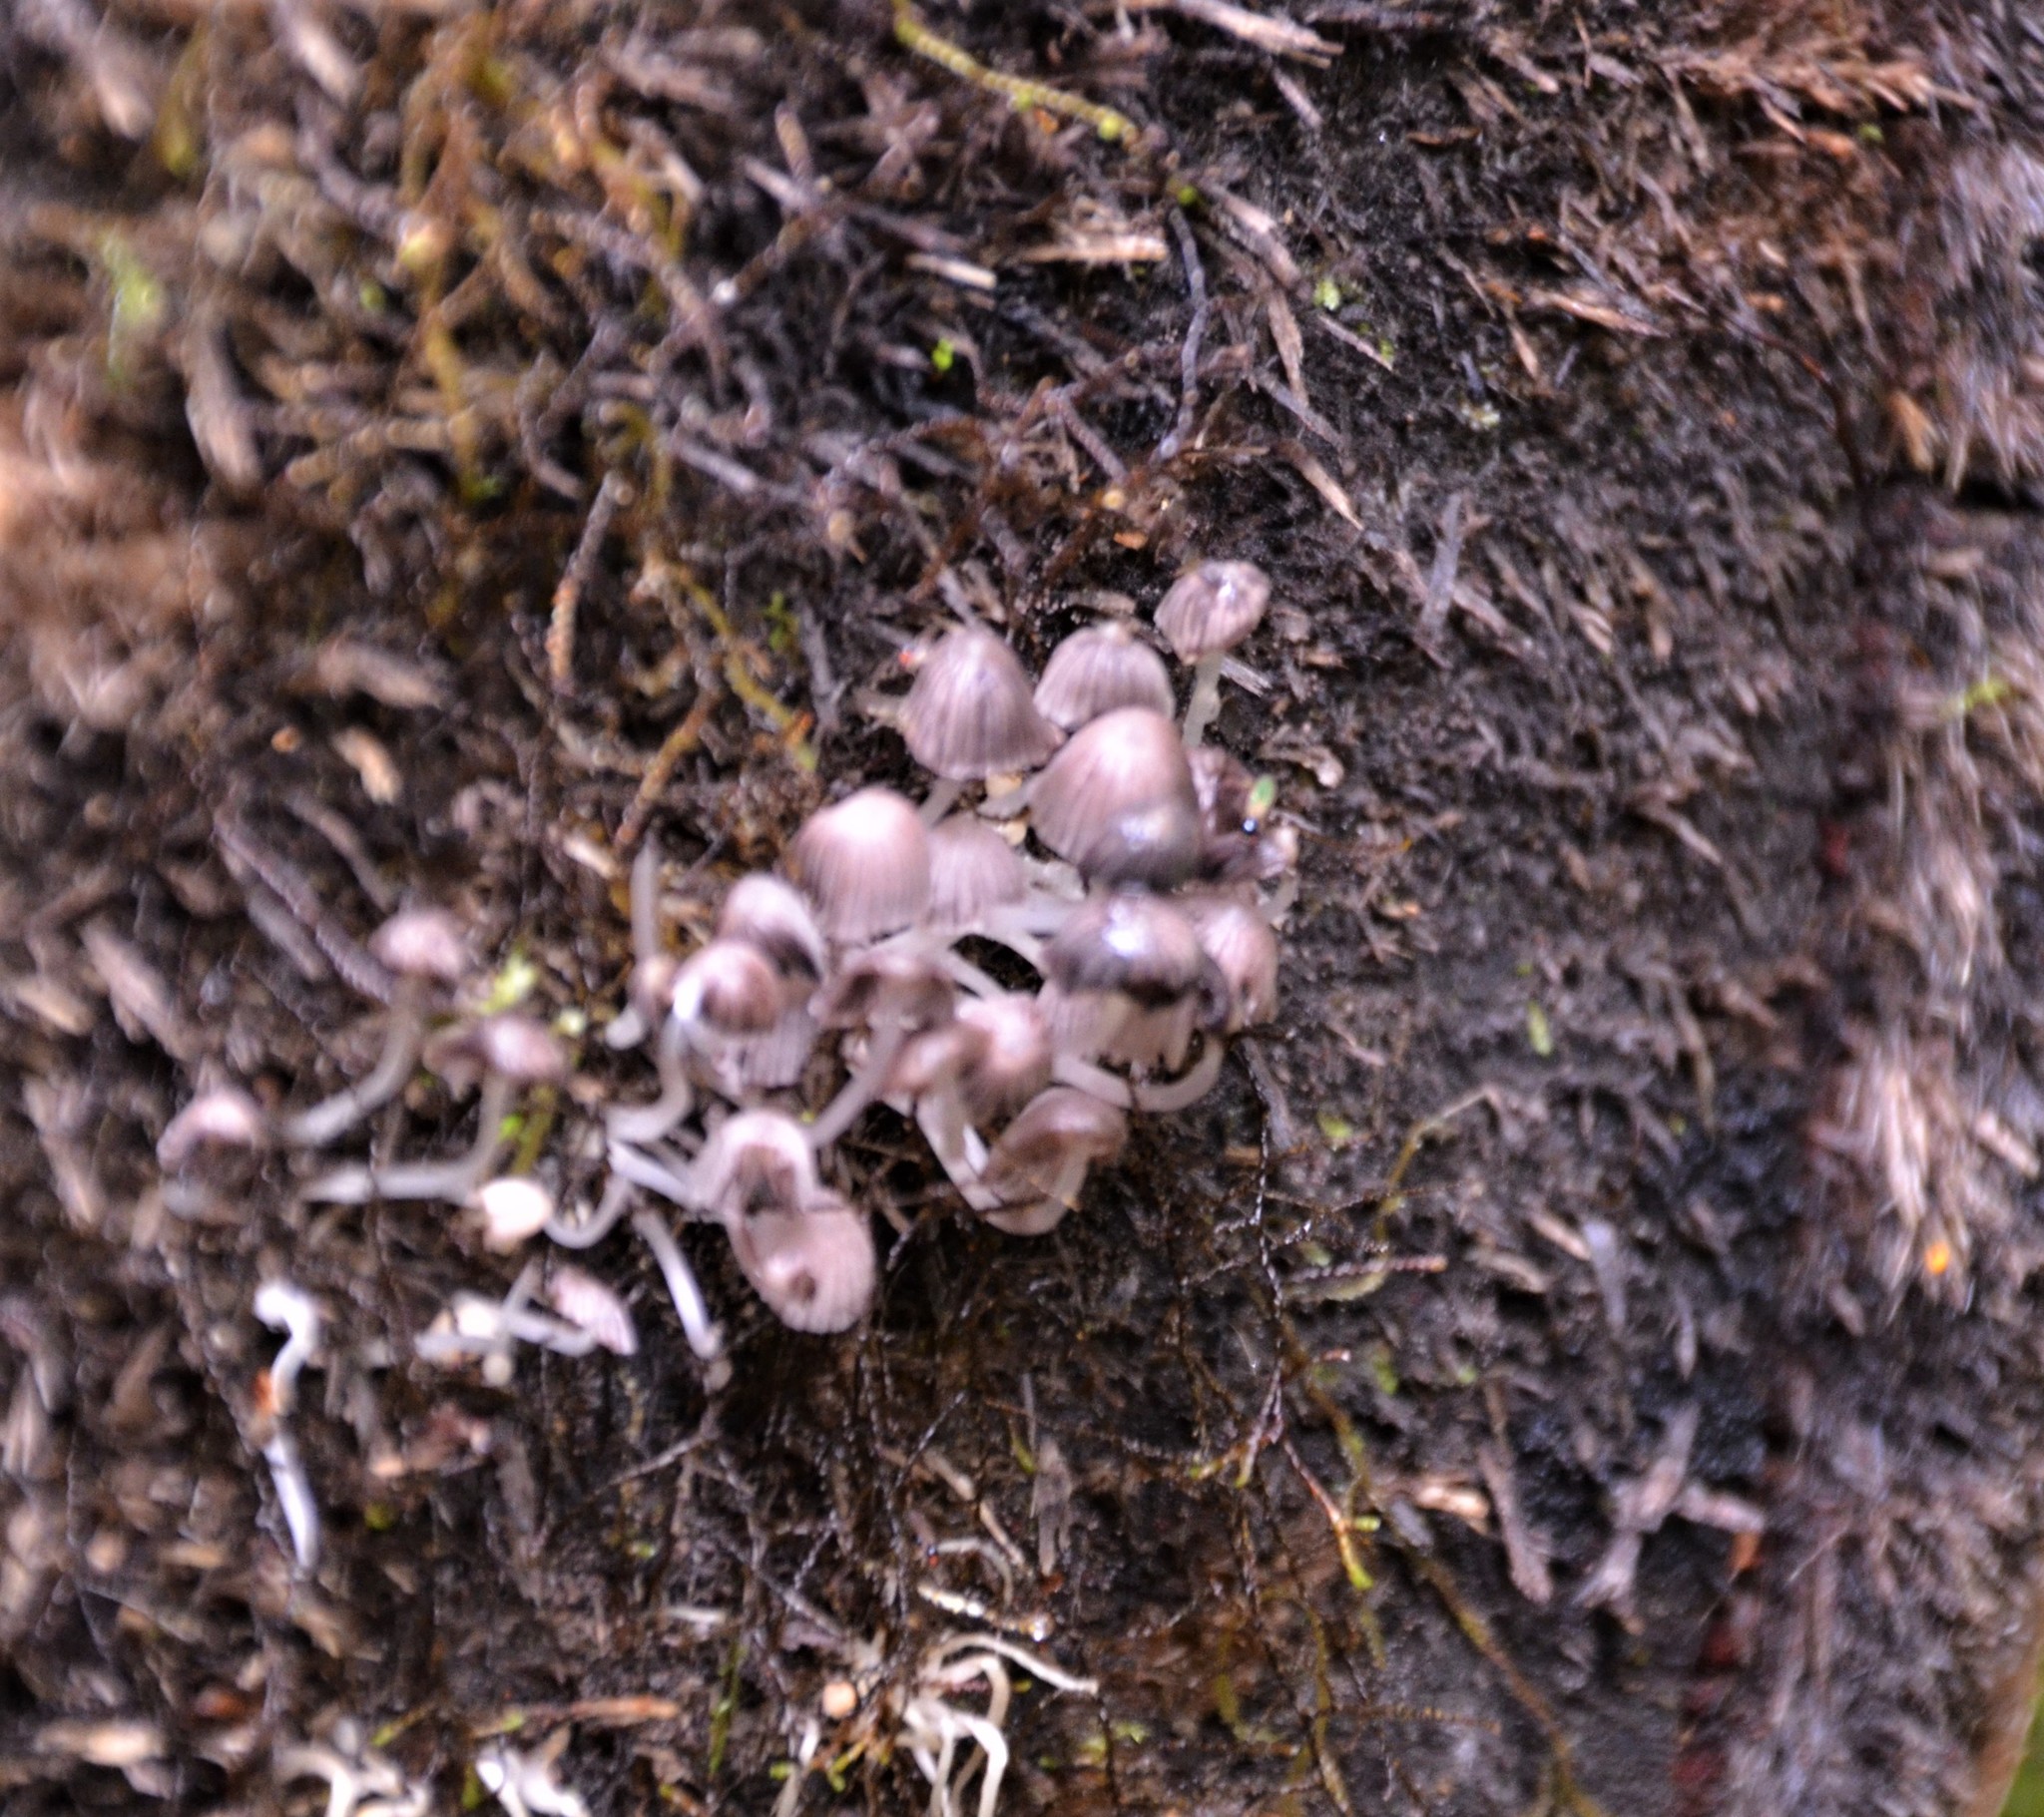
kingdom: Fungi
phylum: Basidiomycota
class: Agaricomycetes
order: Agaricales
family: Psathyrellaceae
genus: Coprinellus
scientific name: Coprinellus disseminatus
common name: Fairies' bonnets
